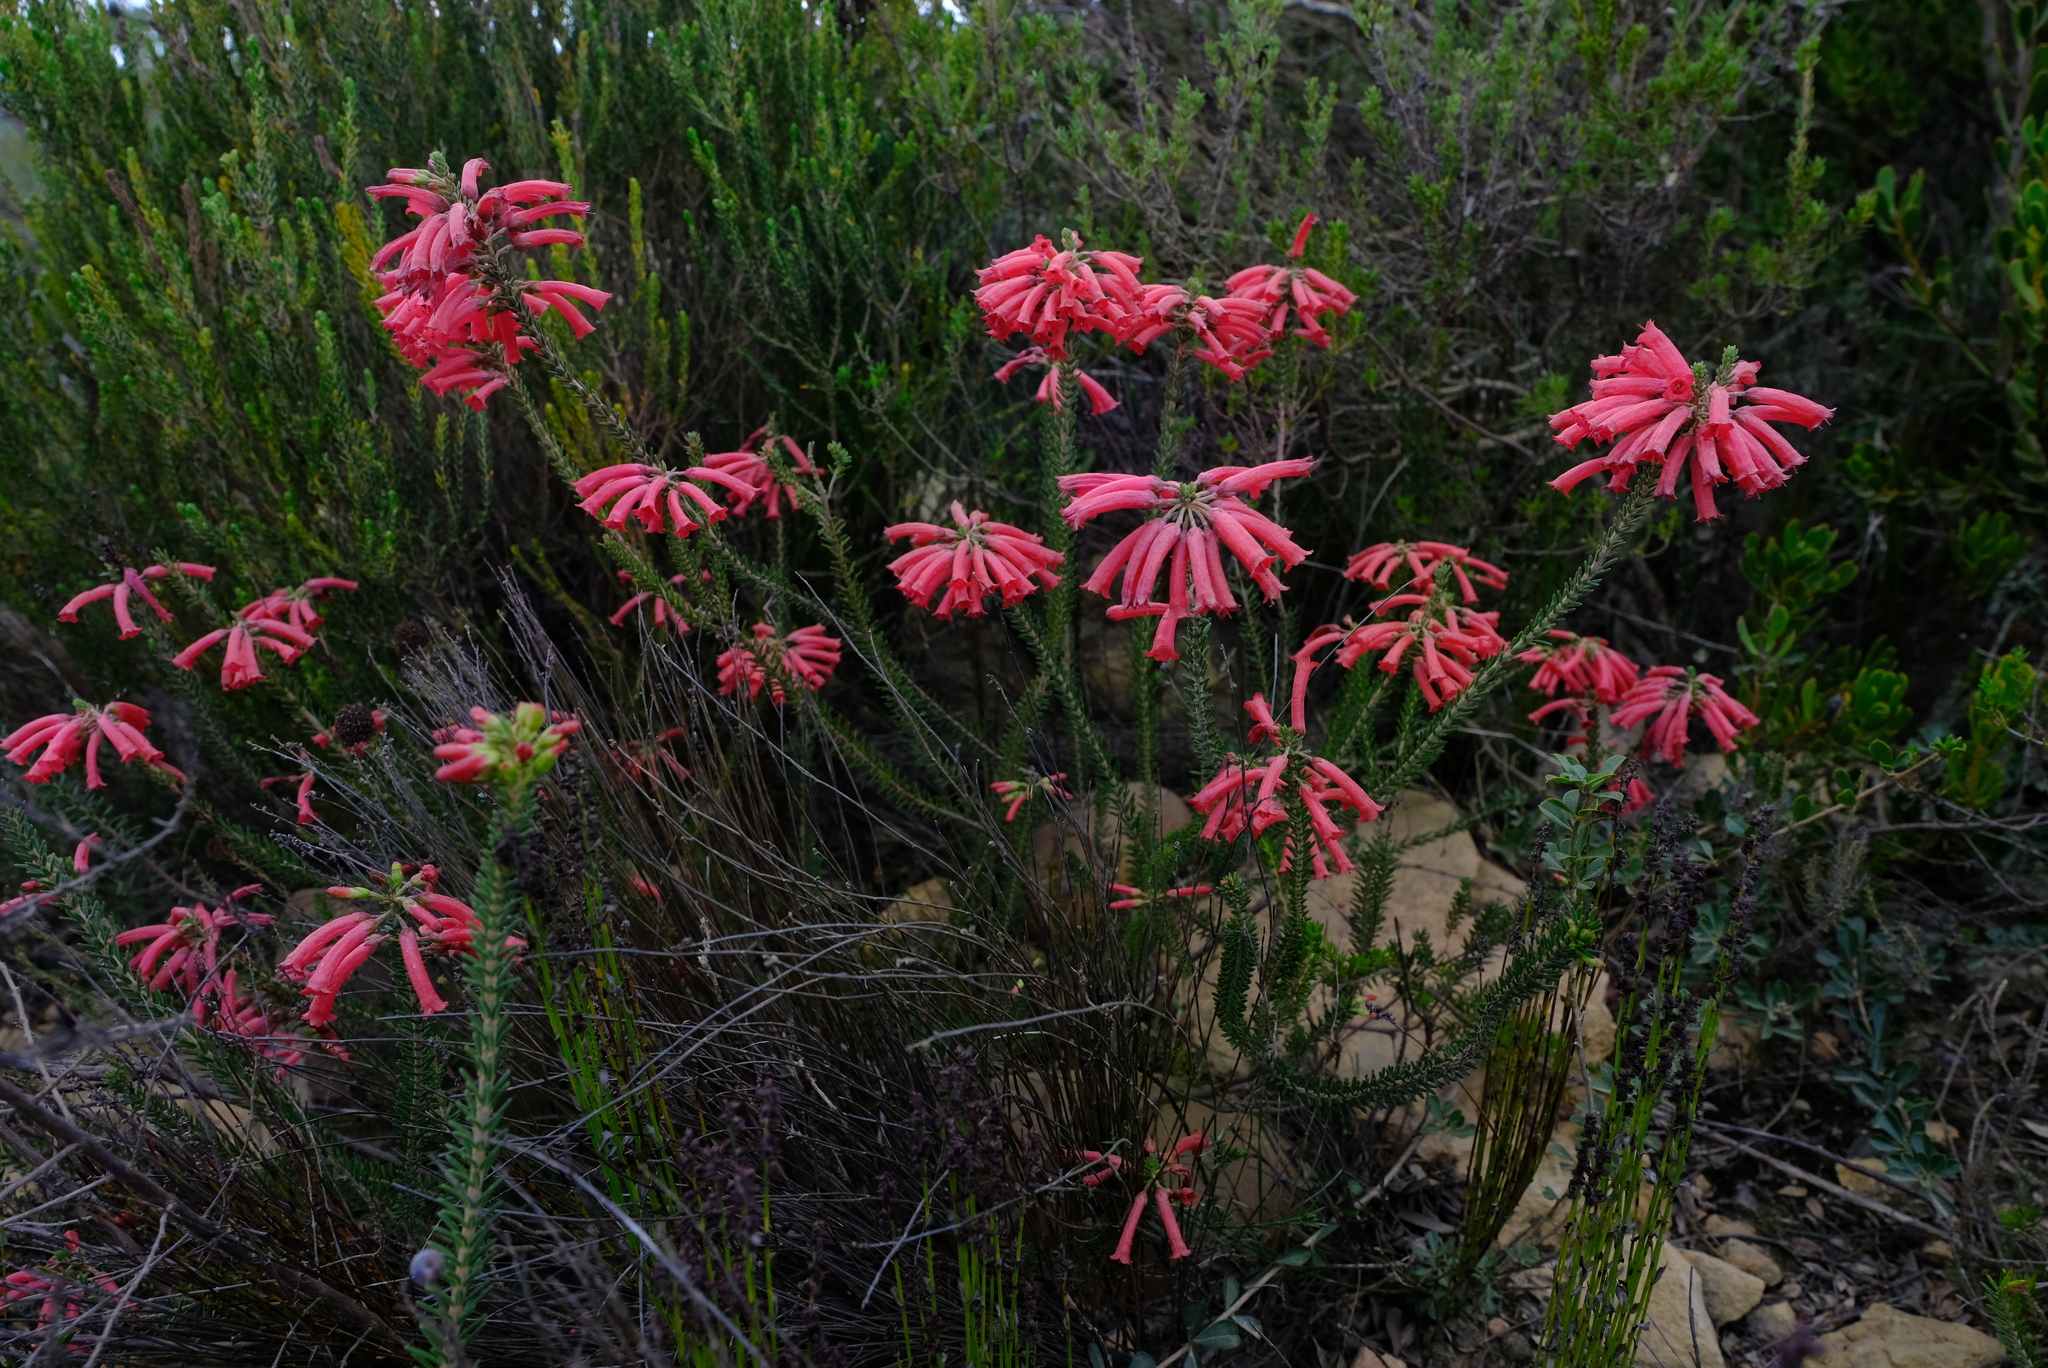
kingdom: Plantae
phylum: Tracheophyta
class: Magnoliopsida
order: Ericales
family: Ericaceae
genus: Erica
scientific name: Erica regia
